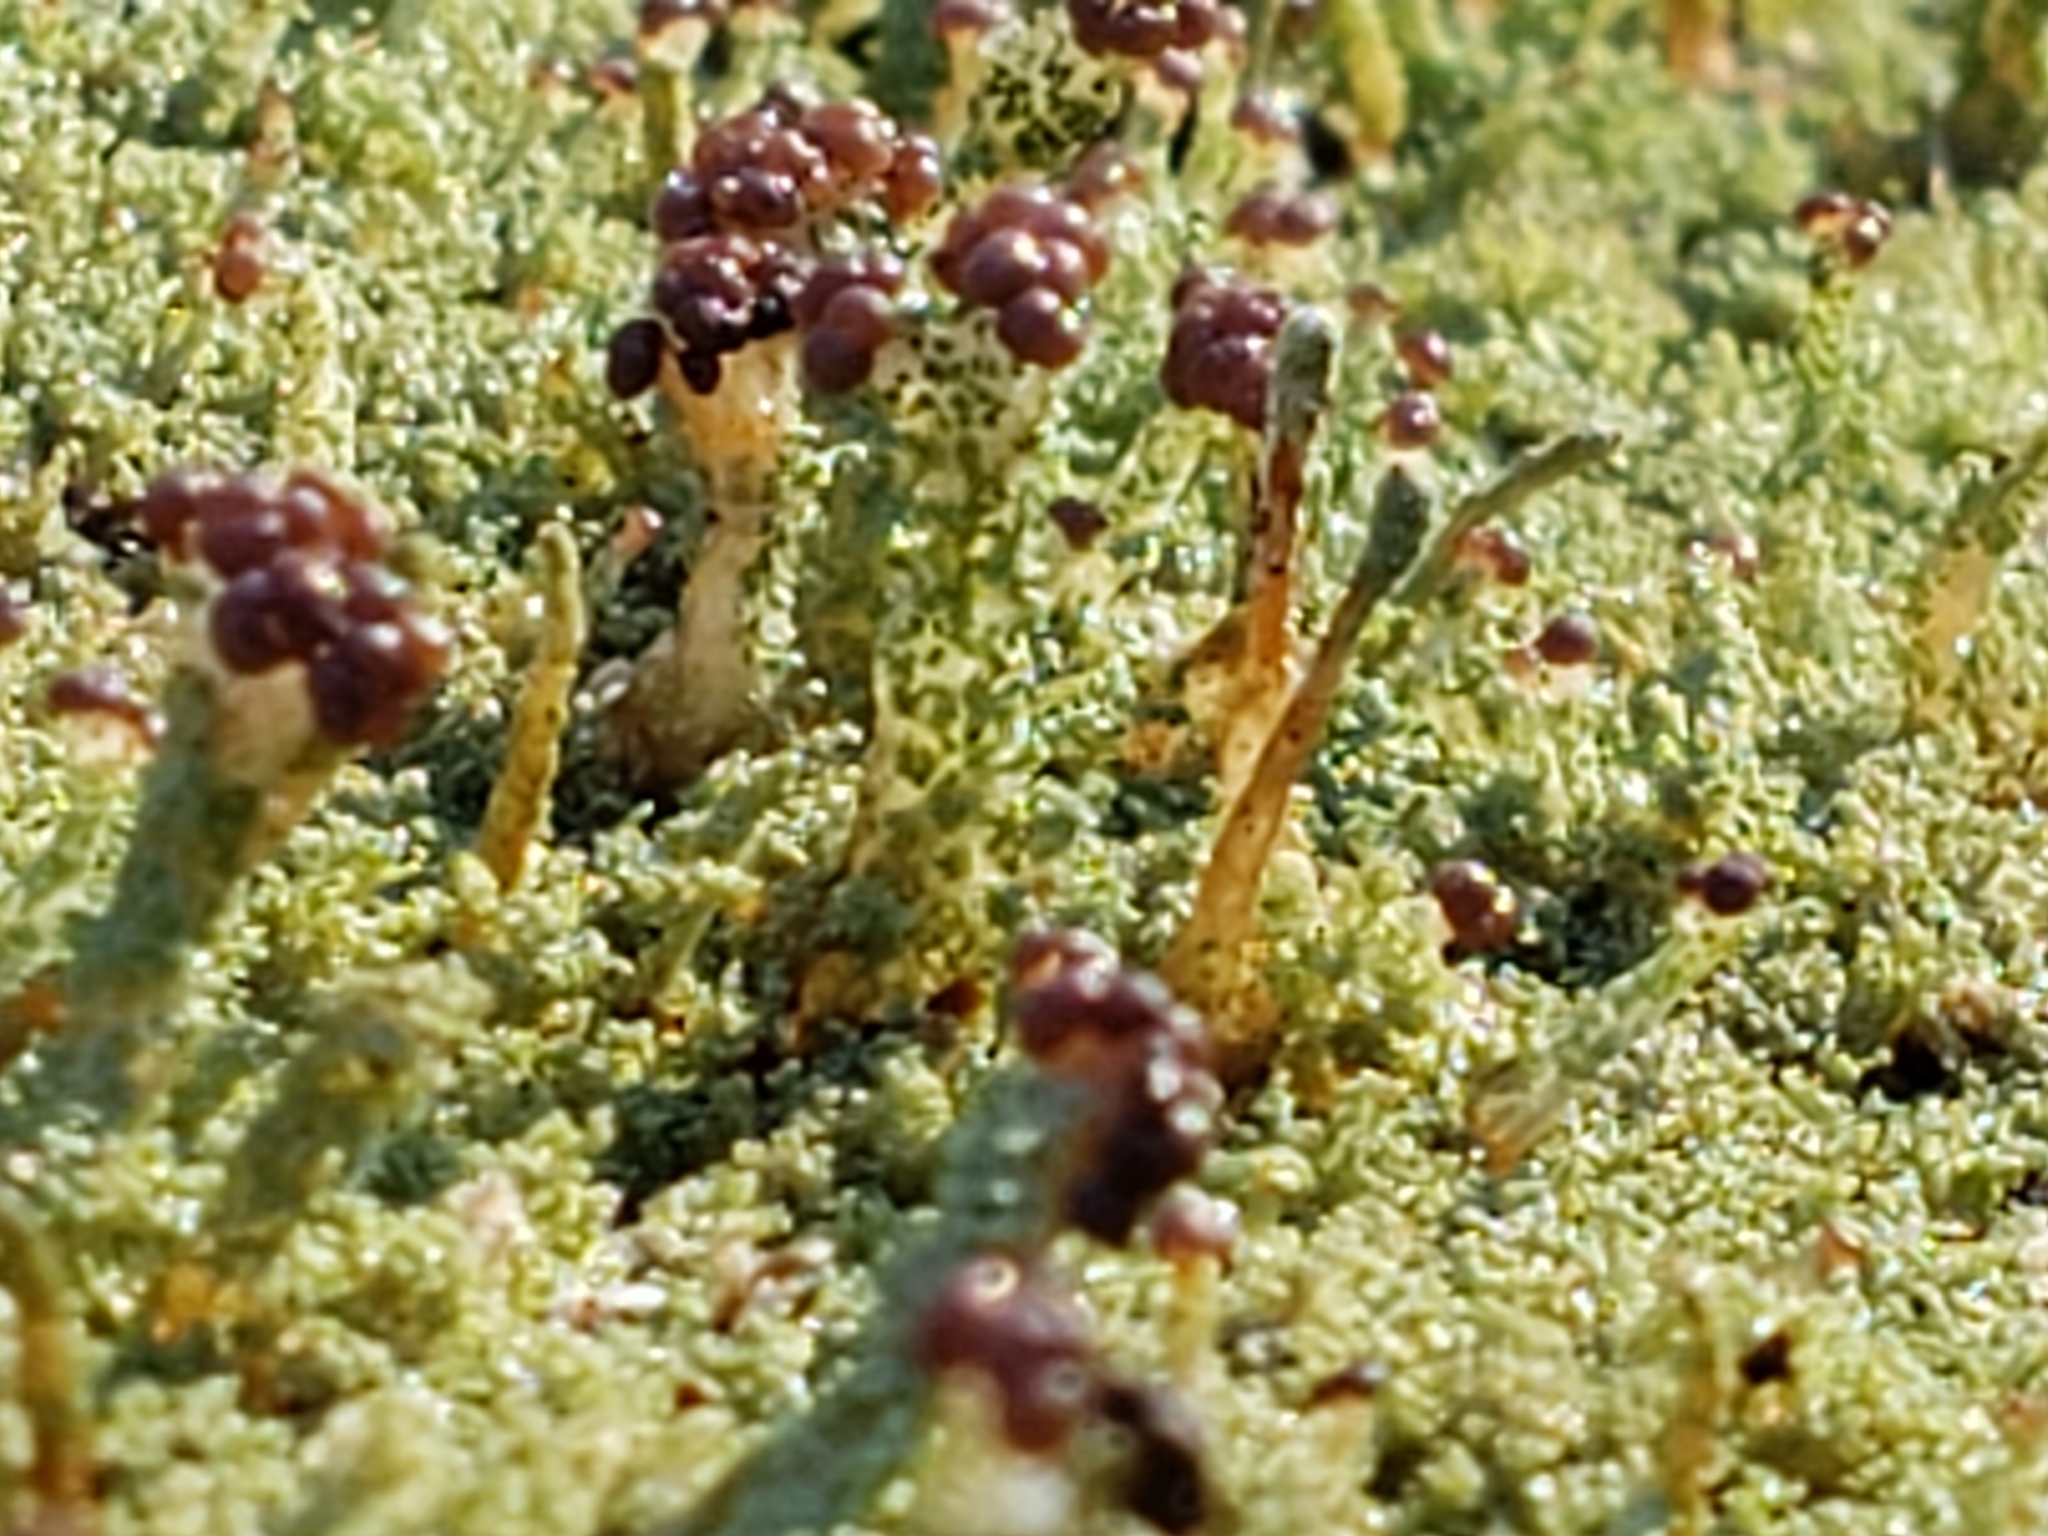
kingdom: Fungi
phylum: Ascomycota
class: Lecanoromycetes
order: Lecanorales
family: Cladoniaceae
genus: Cladonia
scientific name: Cladonia parasitica
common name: Fence-rail clad lichen
